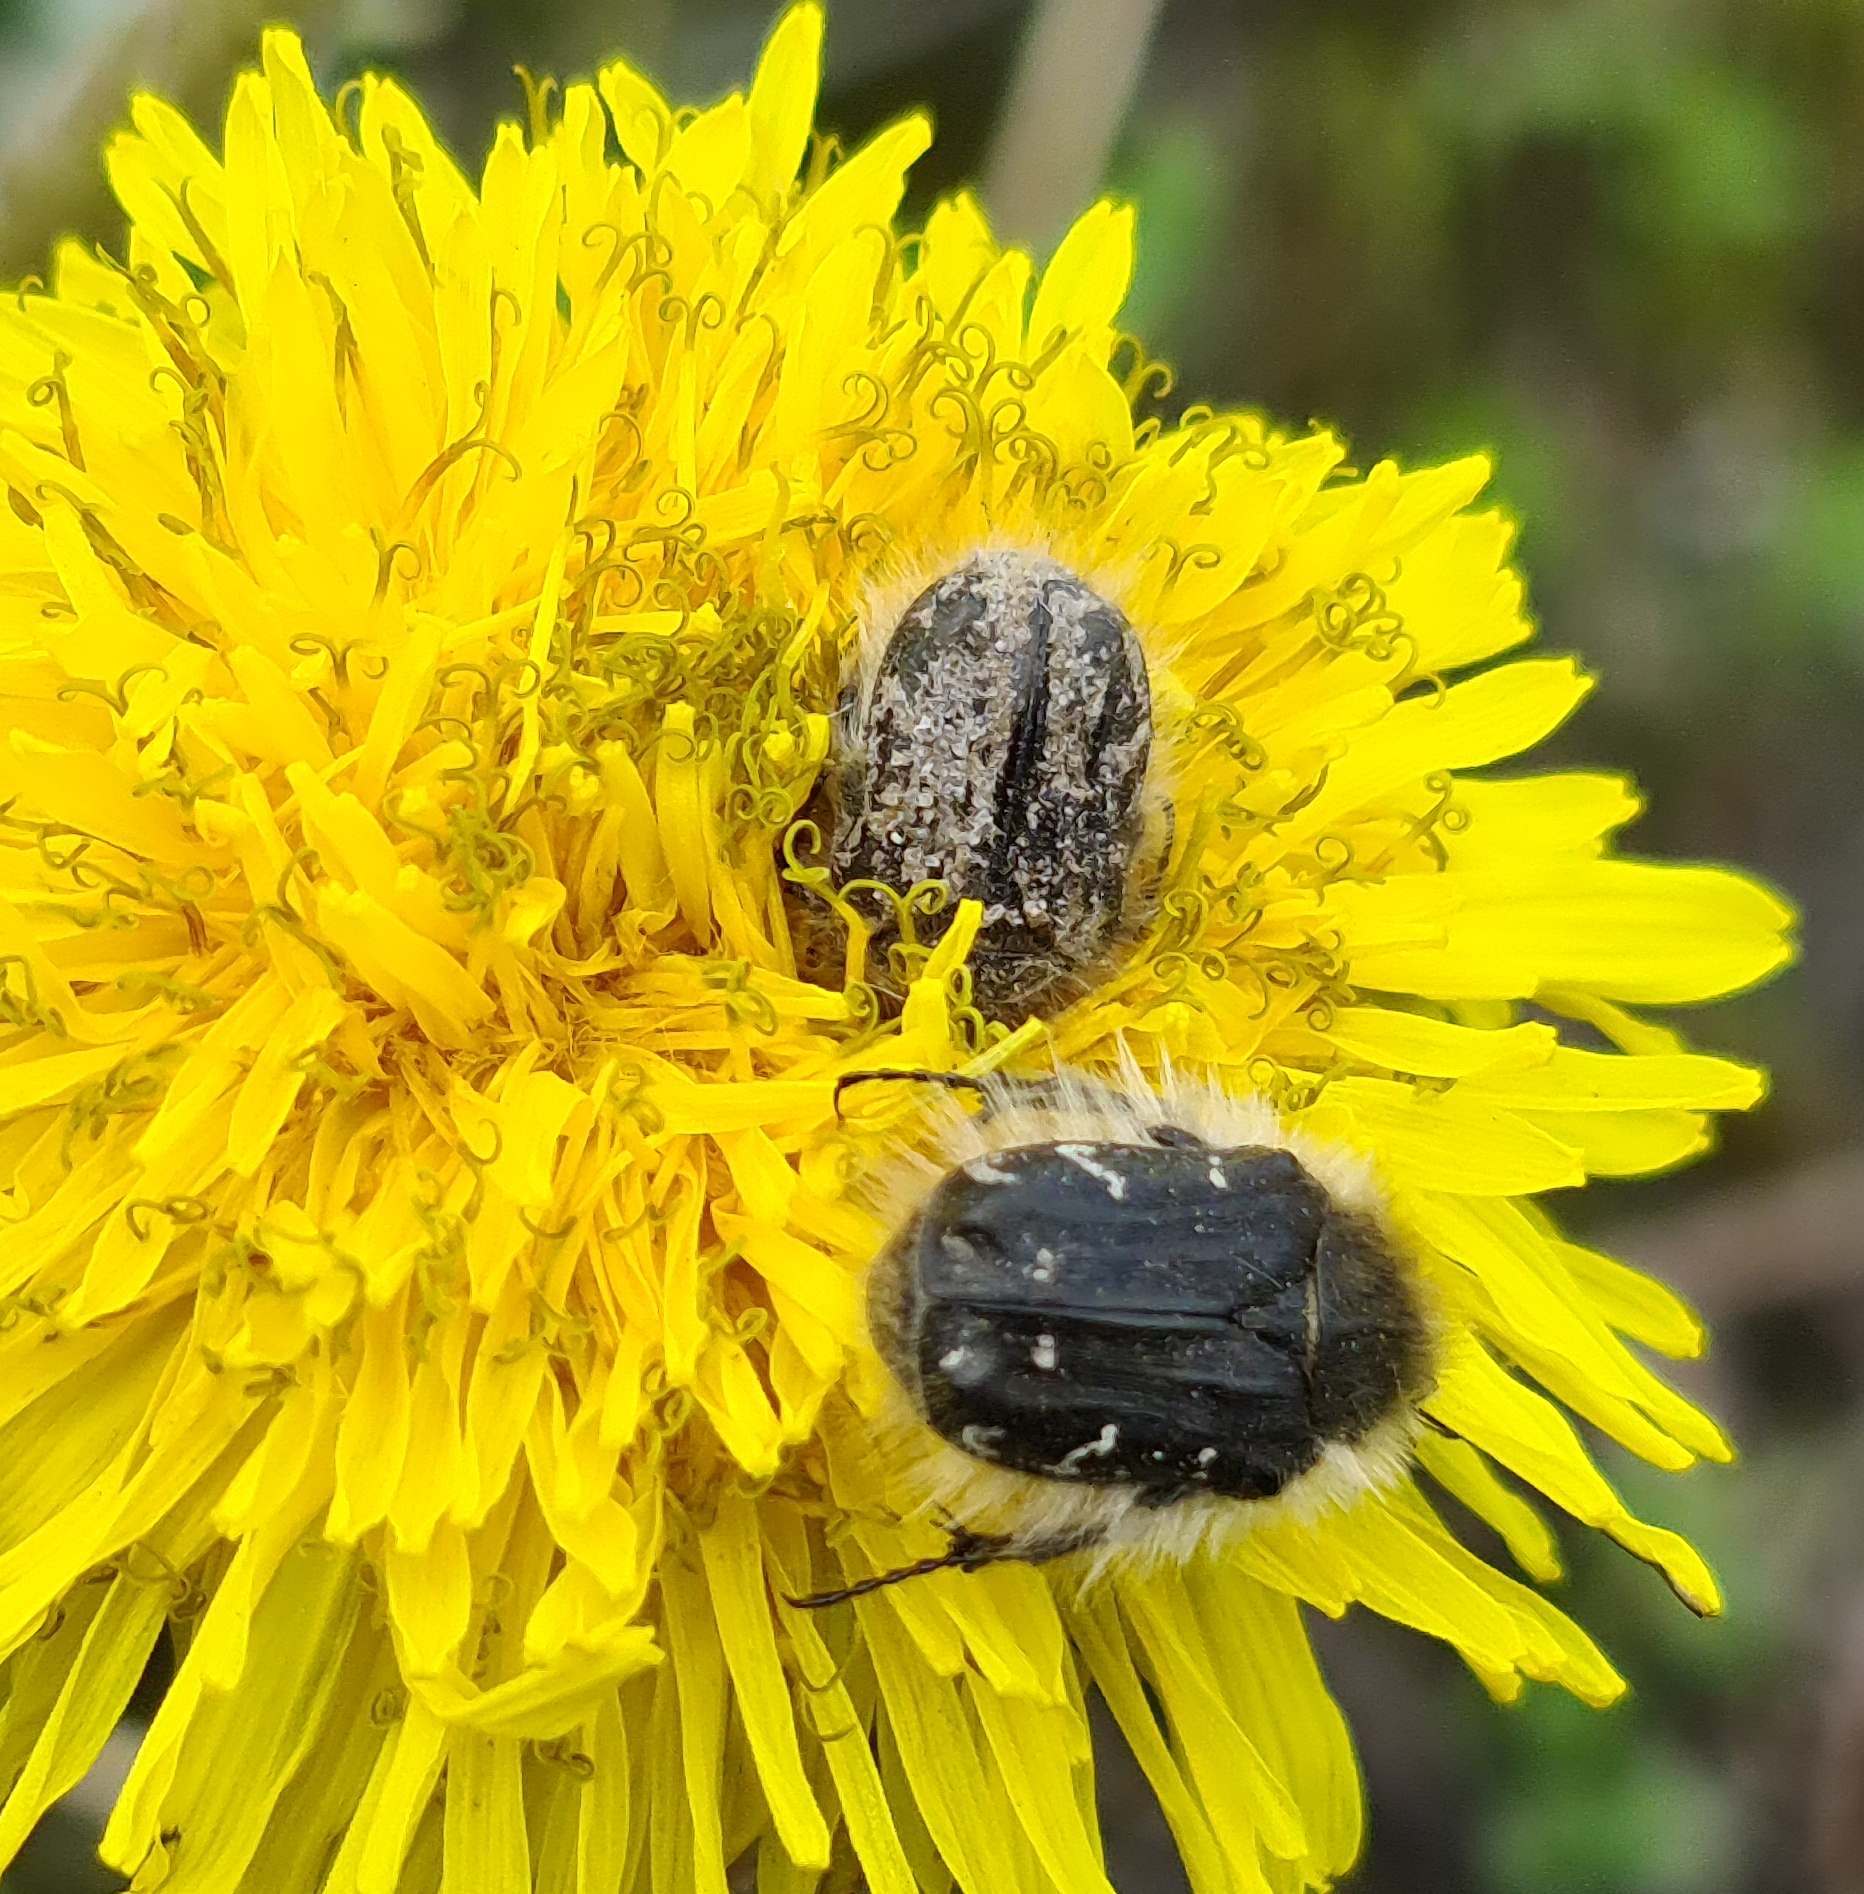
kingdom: Animalia
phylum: Arthropoda
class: Insecta
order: Coleoptera
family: Scarabaeidae
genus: Tropinota
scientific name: Tropinota hirta
